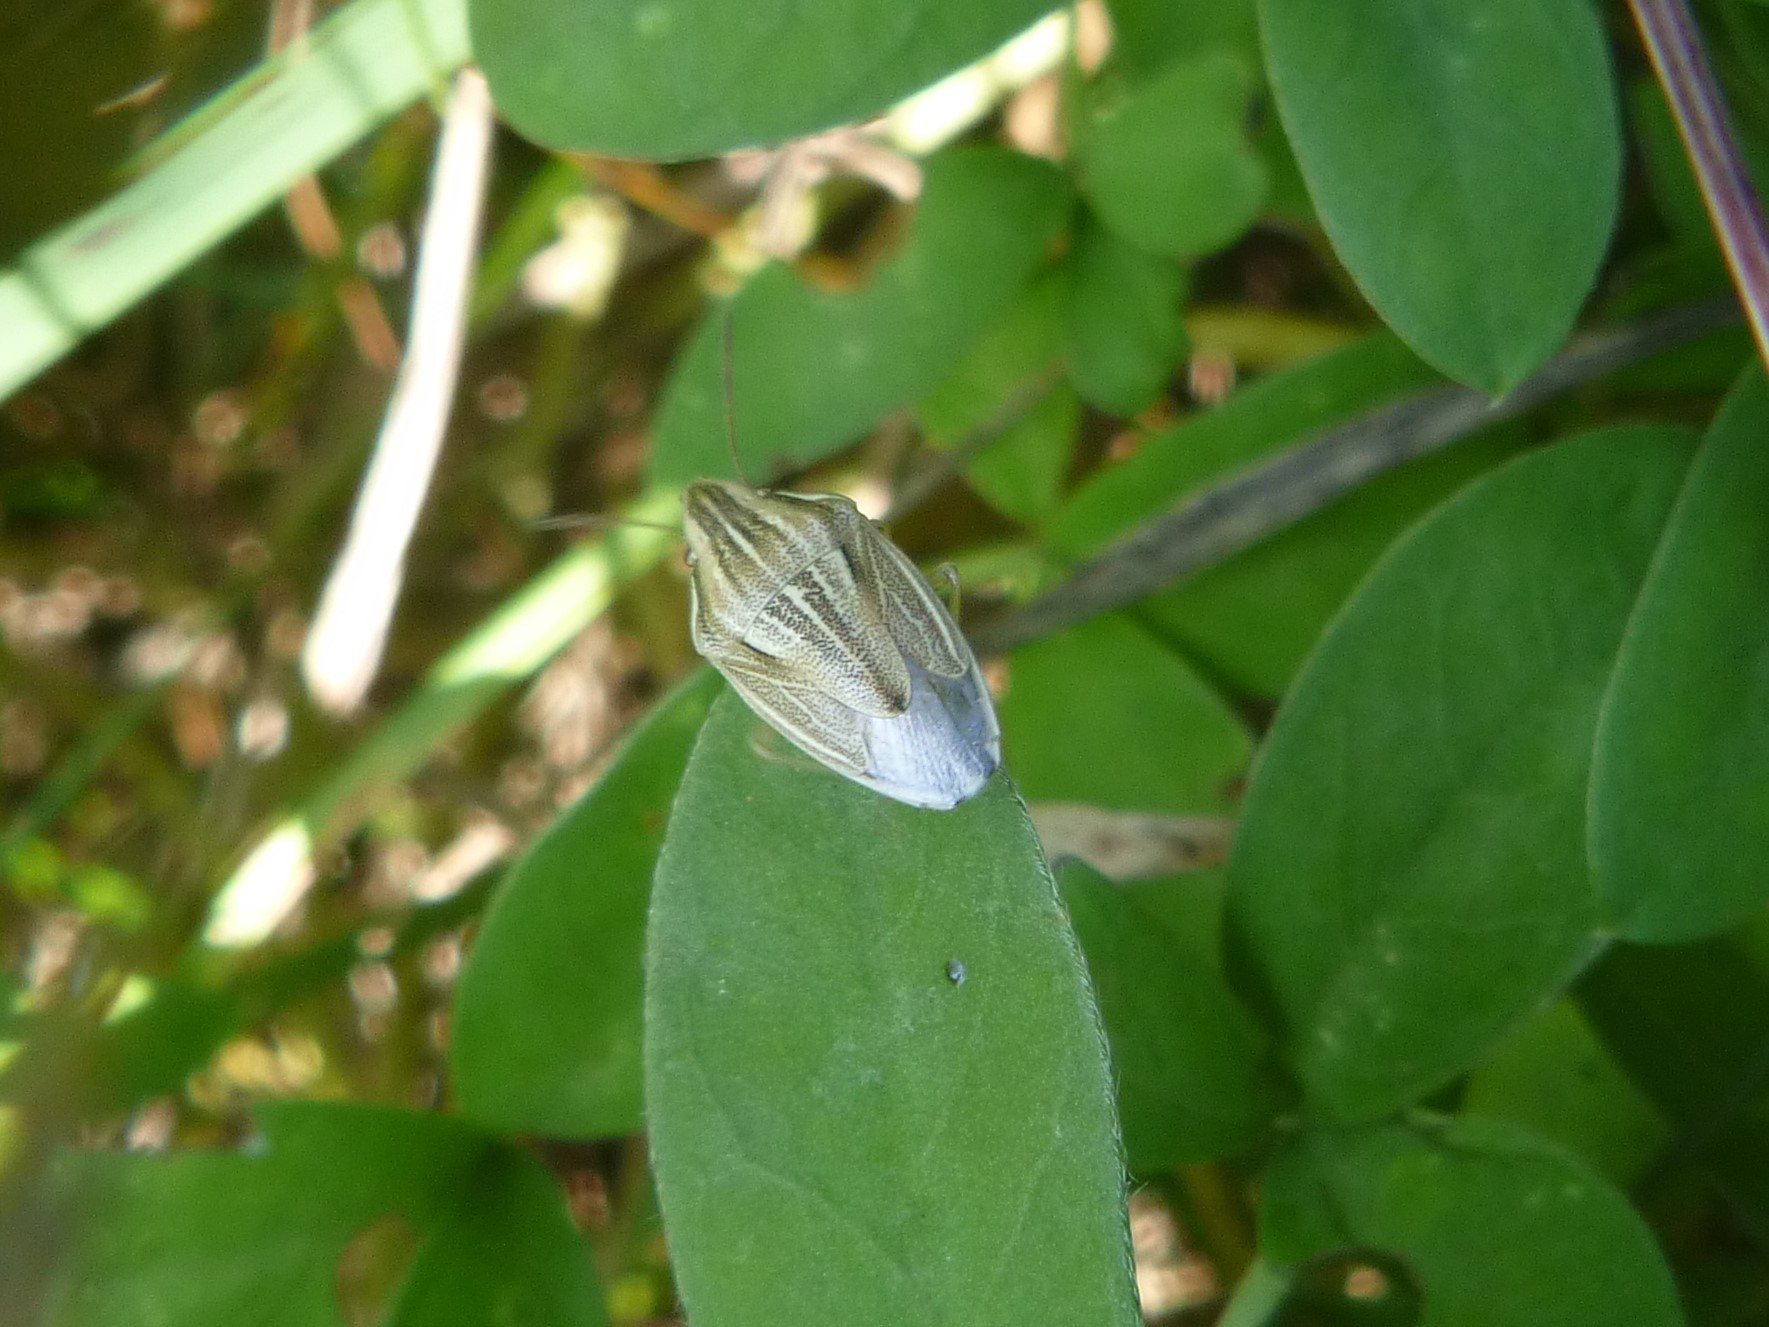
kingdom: Animalia
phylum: Arthropoda
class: Insecta
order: Hemiptera
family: Pentatomidae
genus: Aelia
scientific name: Aelia acuminata
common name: Bishop's mitre
